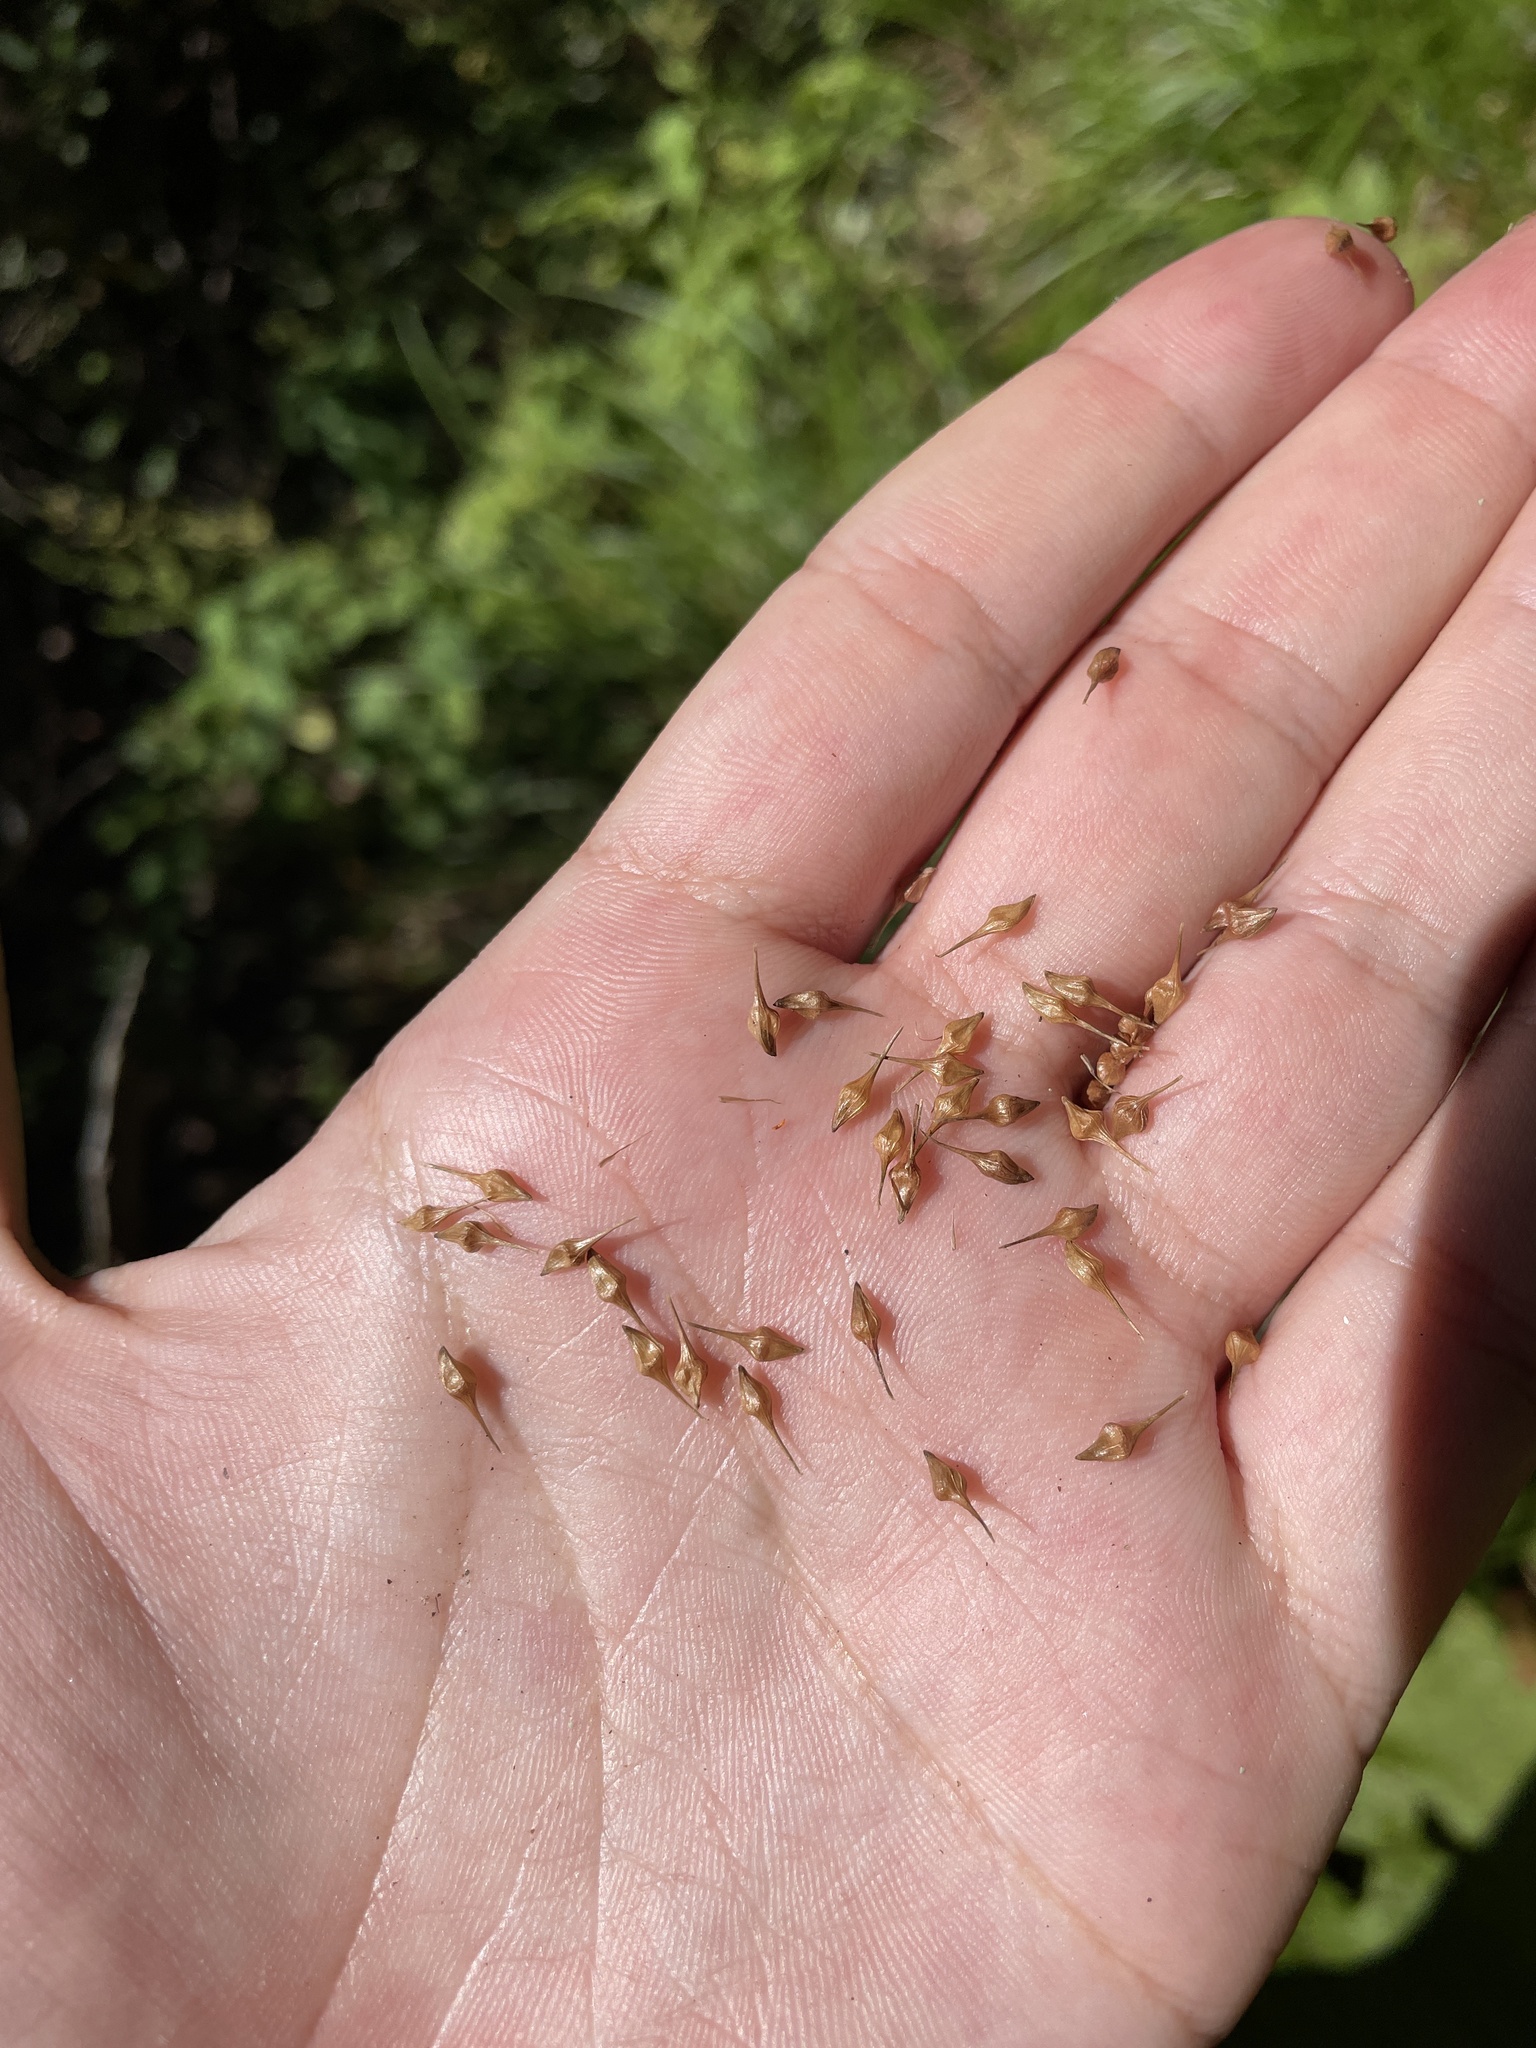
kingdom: Plantae
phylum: Tracheophyta
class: Liliopsida
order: Poales
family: Cyperaceae
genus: Carex
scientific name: Carex lurida
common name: Sallow sedge
